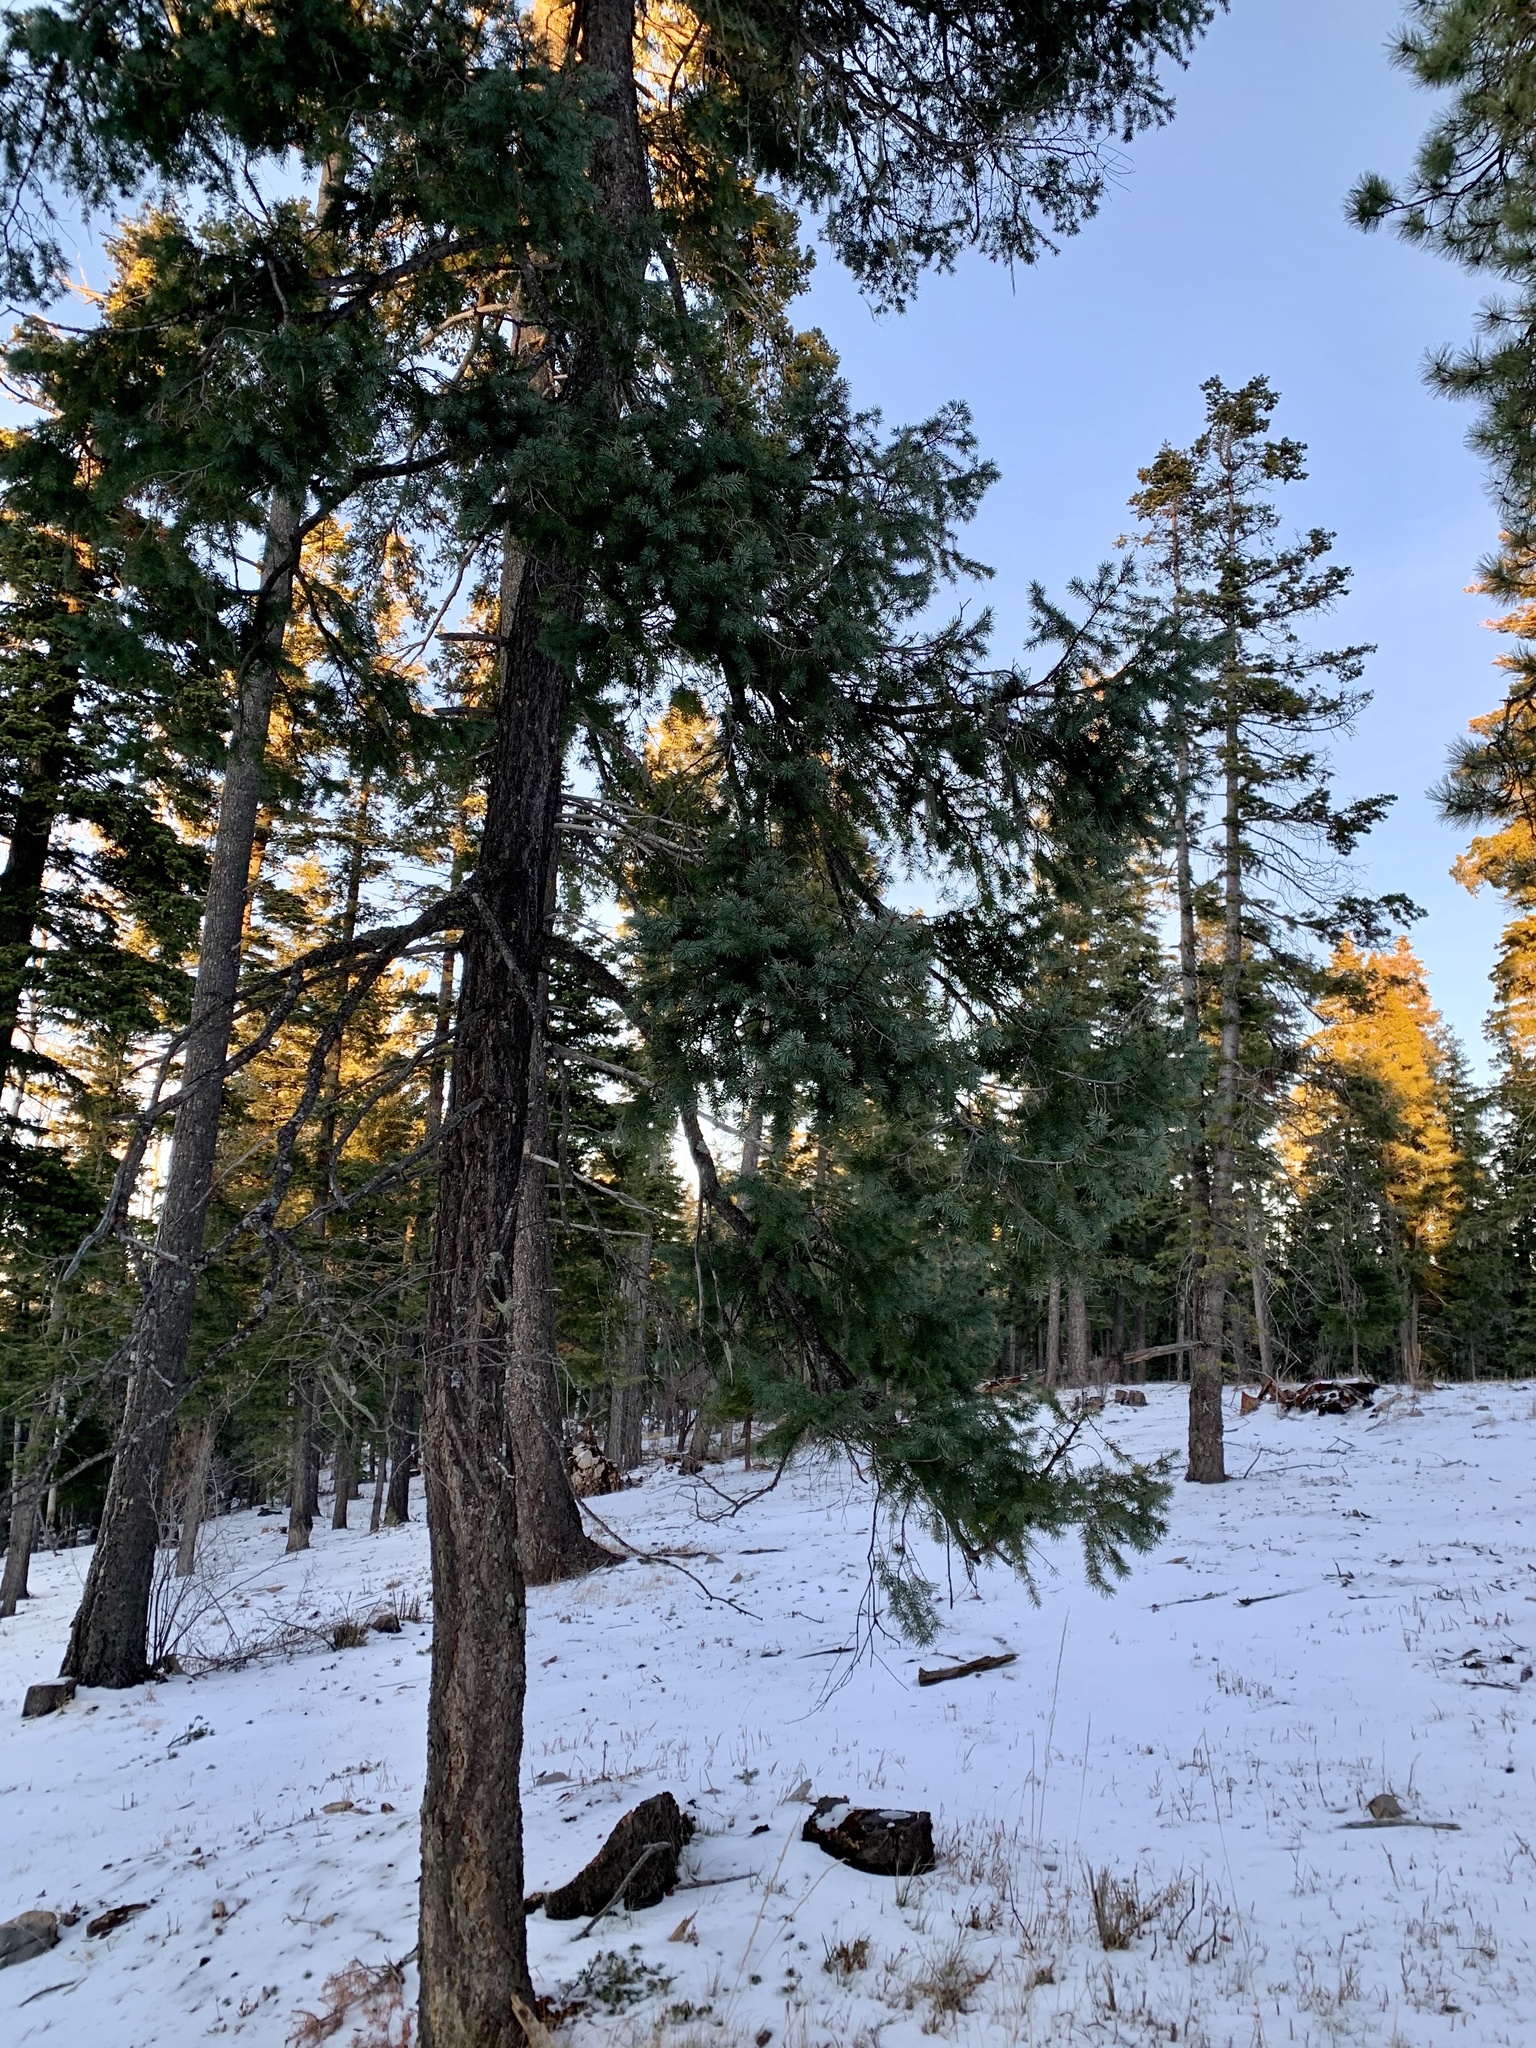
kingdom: Plantae
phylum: Tracheophyta
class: Pinopsida
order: Pinales
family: Pinaceae
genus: Pseudotsuga
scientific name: Pseudotsuga menziesii
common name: Douglas fir
